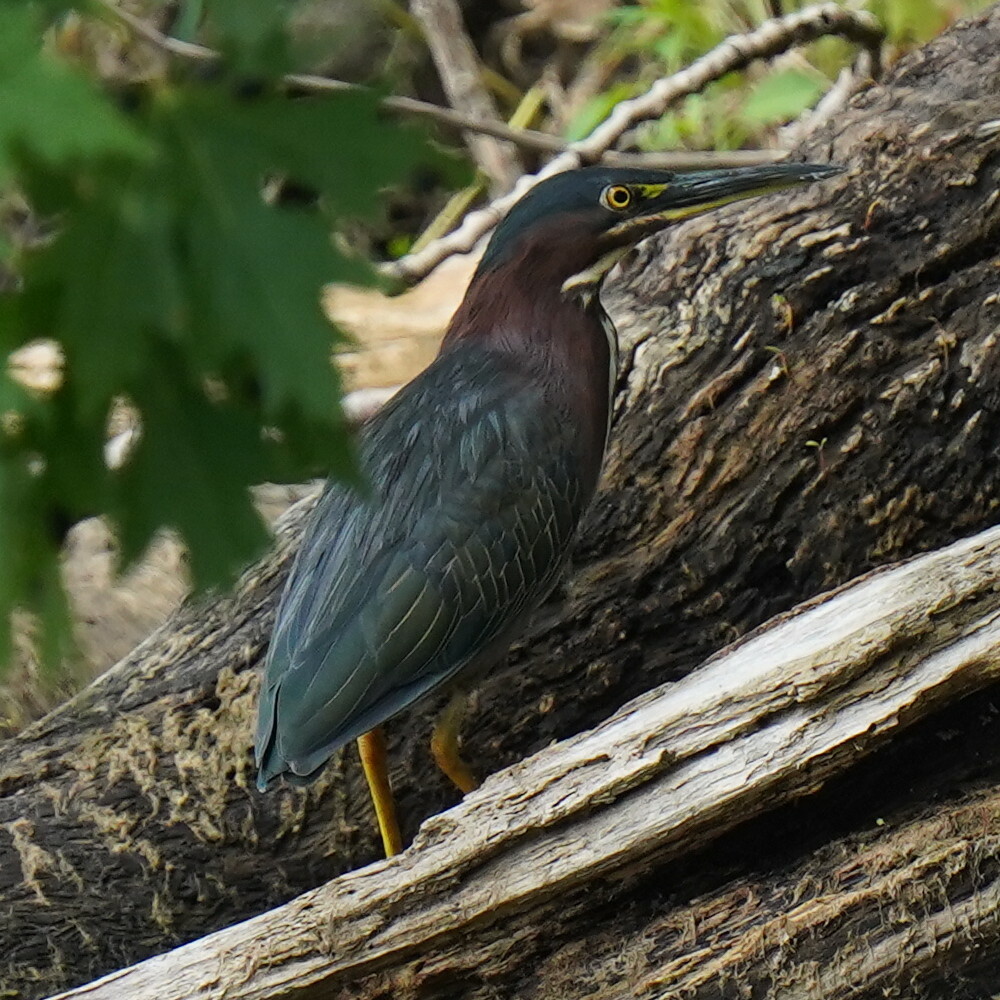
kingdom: Animalia
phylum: Chordata
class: Aves
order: Pelecaniformes
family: Ardeidae
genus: Butorides
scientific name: Butorides virescens
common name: Green heron
